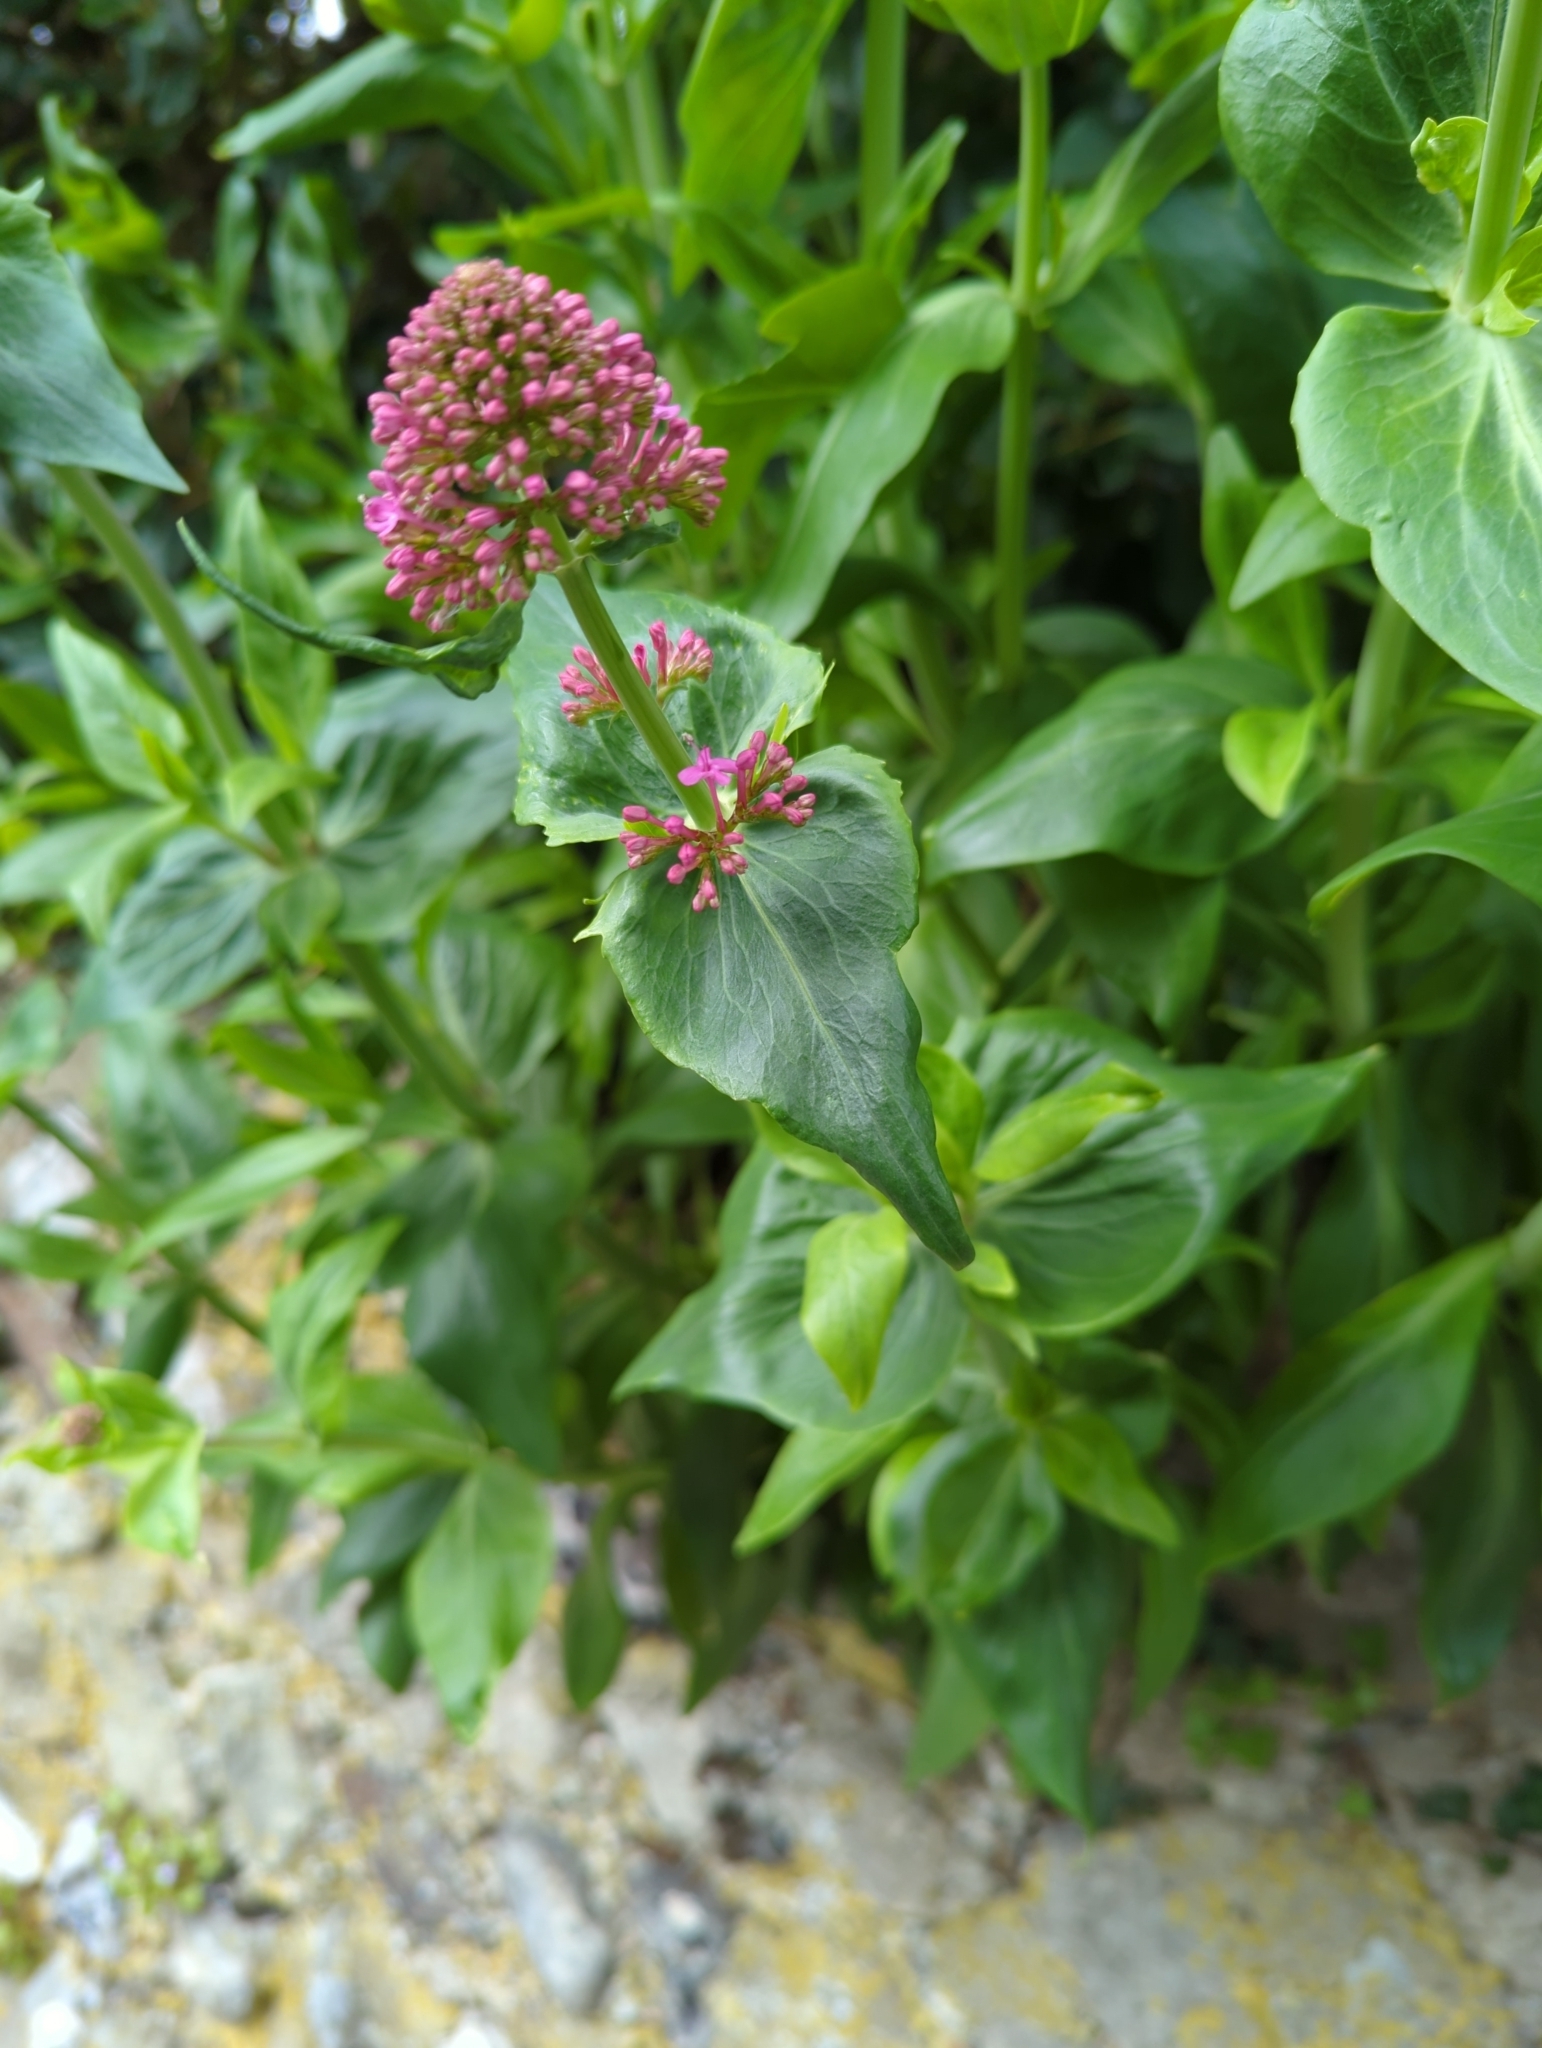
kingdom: Plantae
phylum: Tracheophyta
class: Magnoliopsida
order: Dipsacales
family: Caprifoliaceae
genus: Centranthus
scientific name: Centranthus ruber
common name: Red valerian
